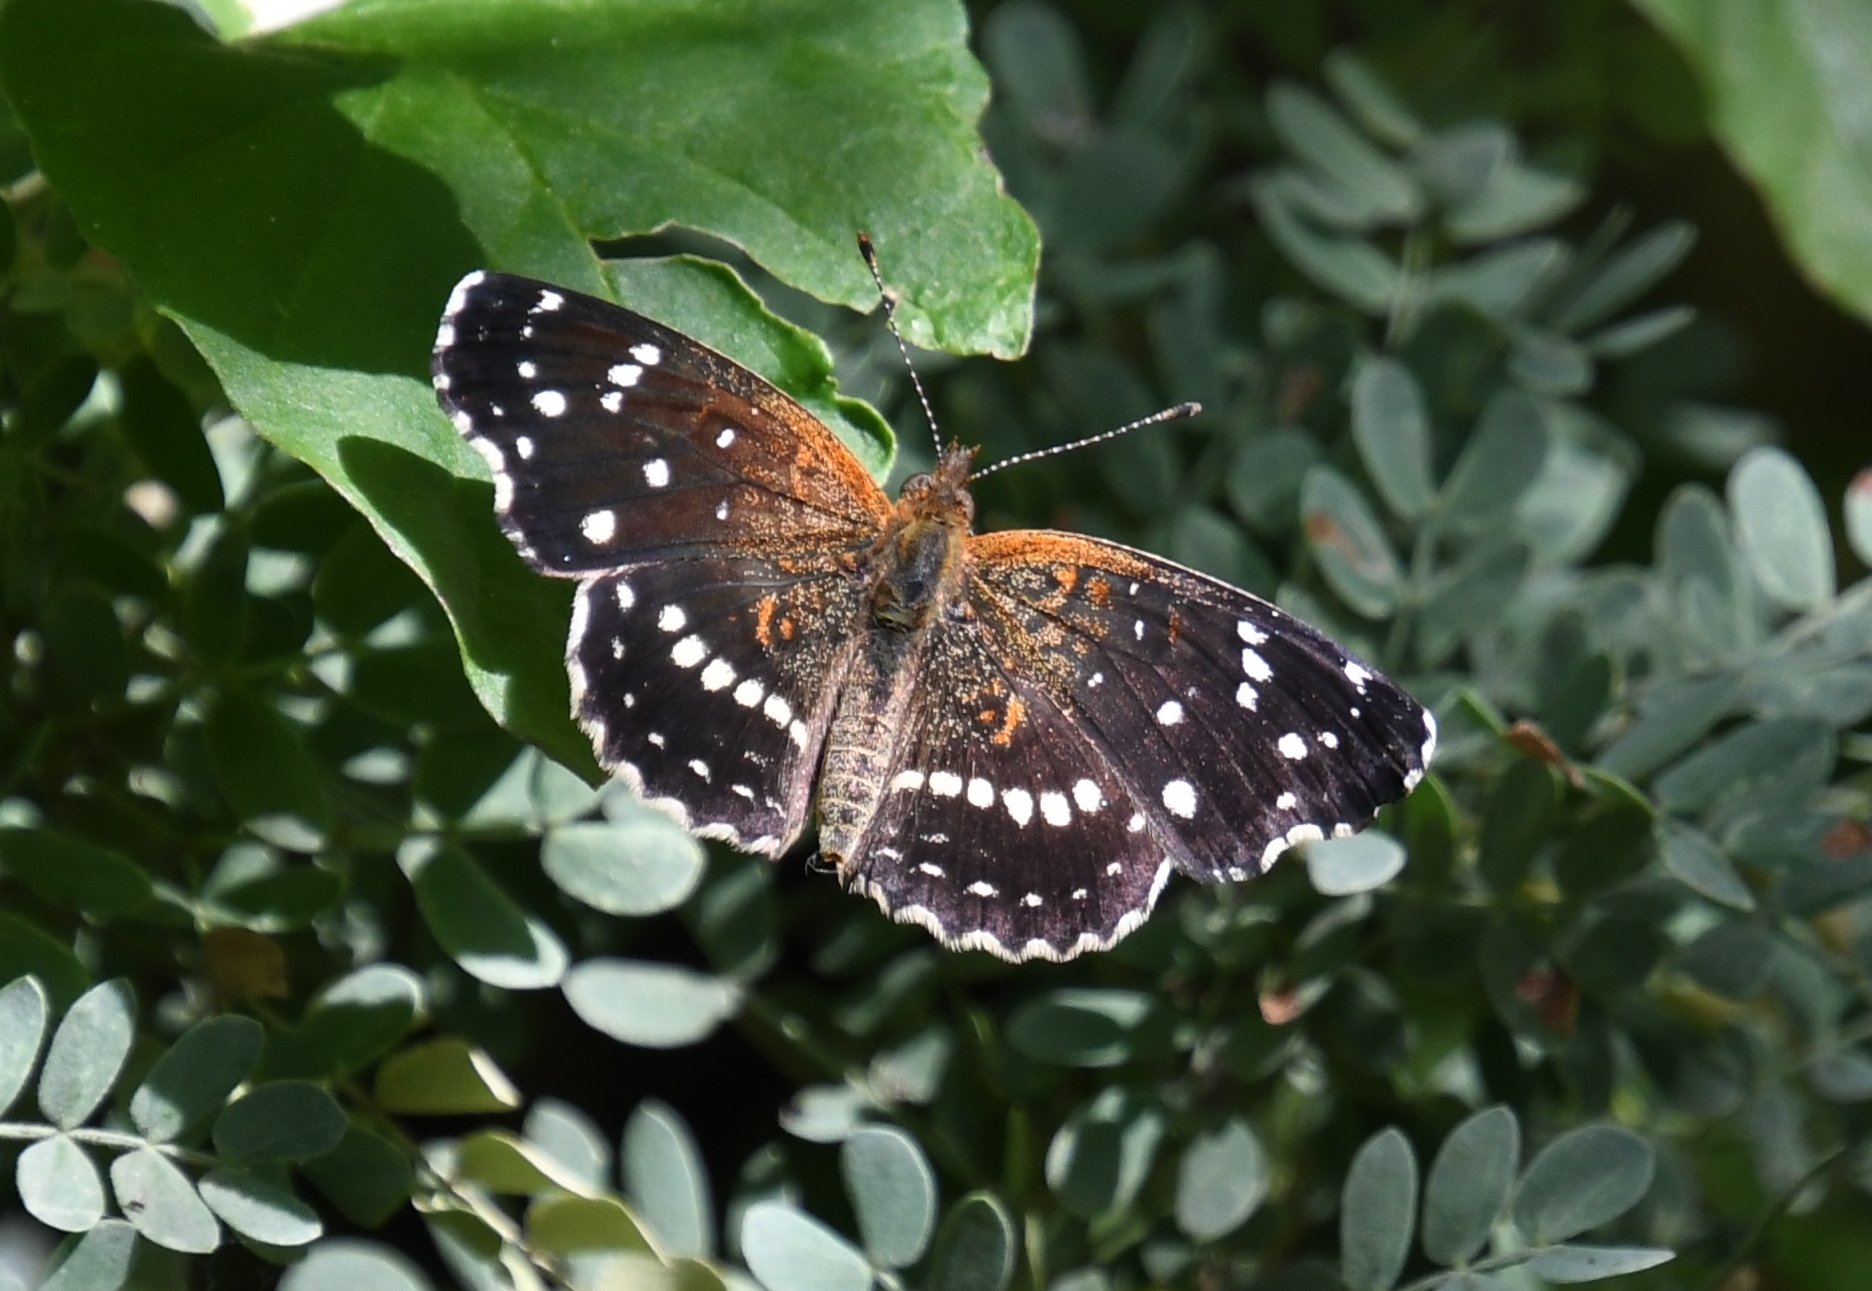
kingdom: Animalia
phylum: Arthropoda
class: Insecta
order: Lepidoptera
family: Nymphalidae
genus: Anthanassa
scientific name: Anthanassa texana
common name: Texan crescent
